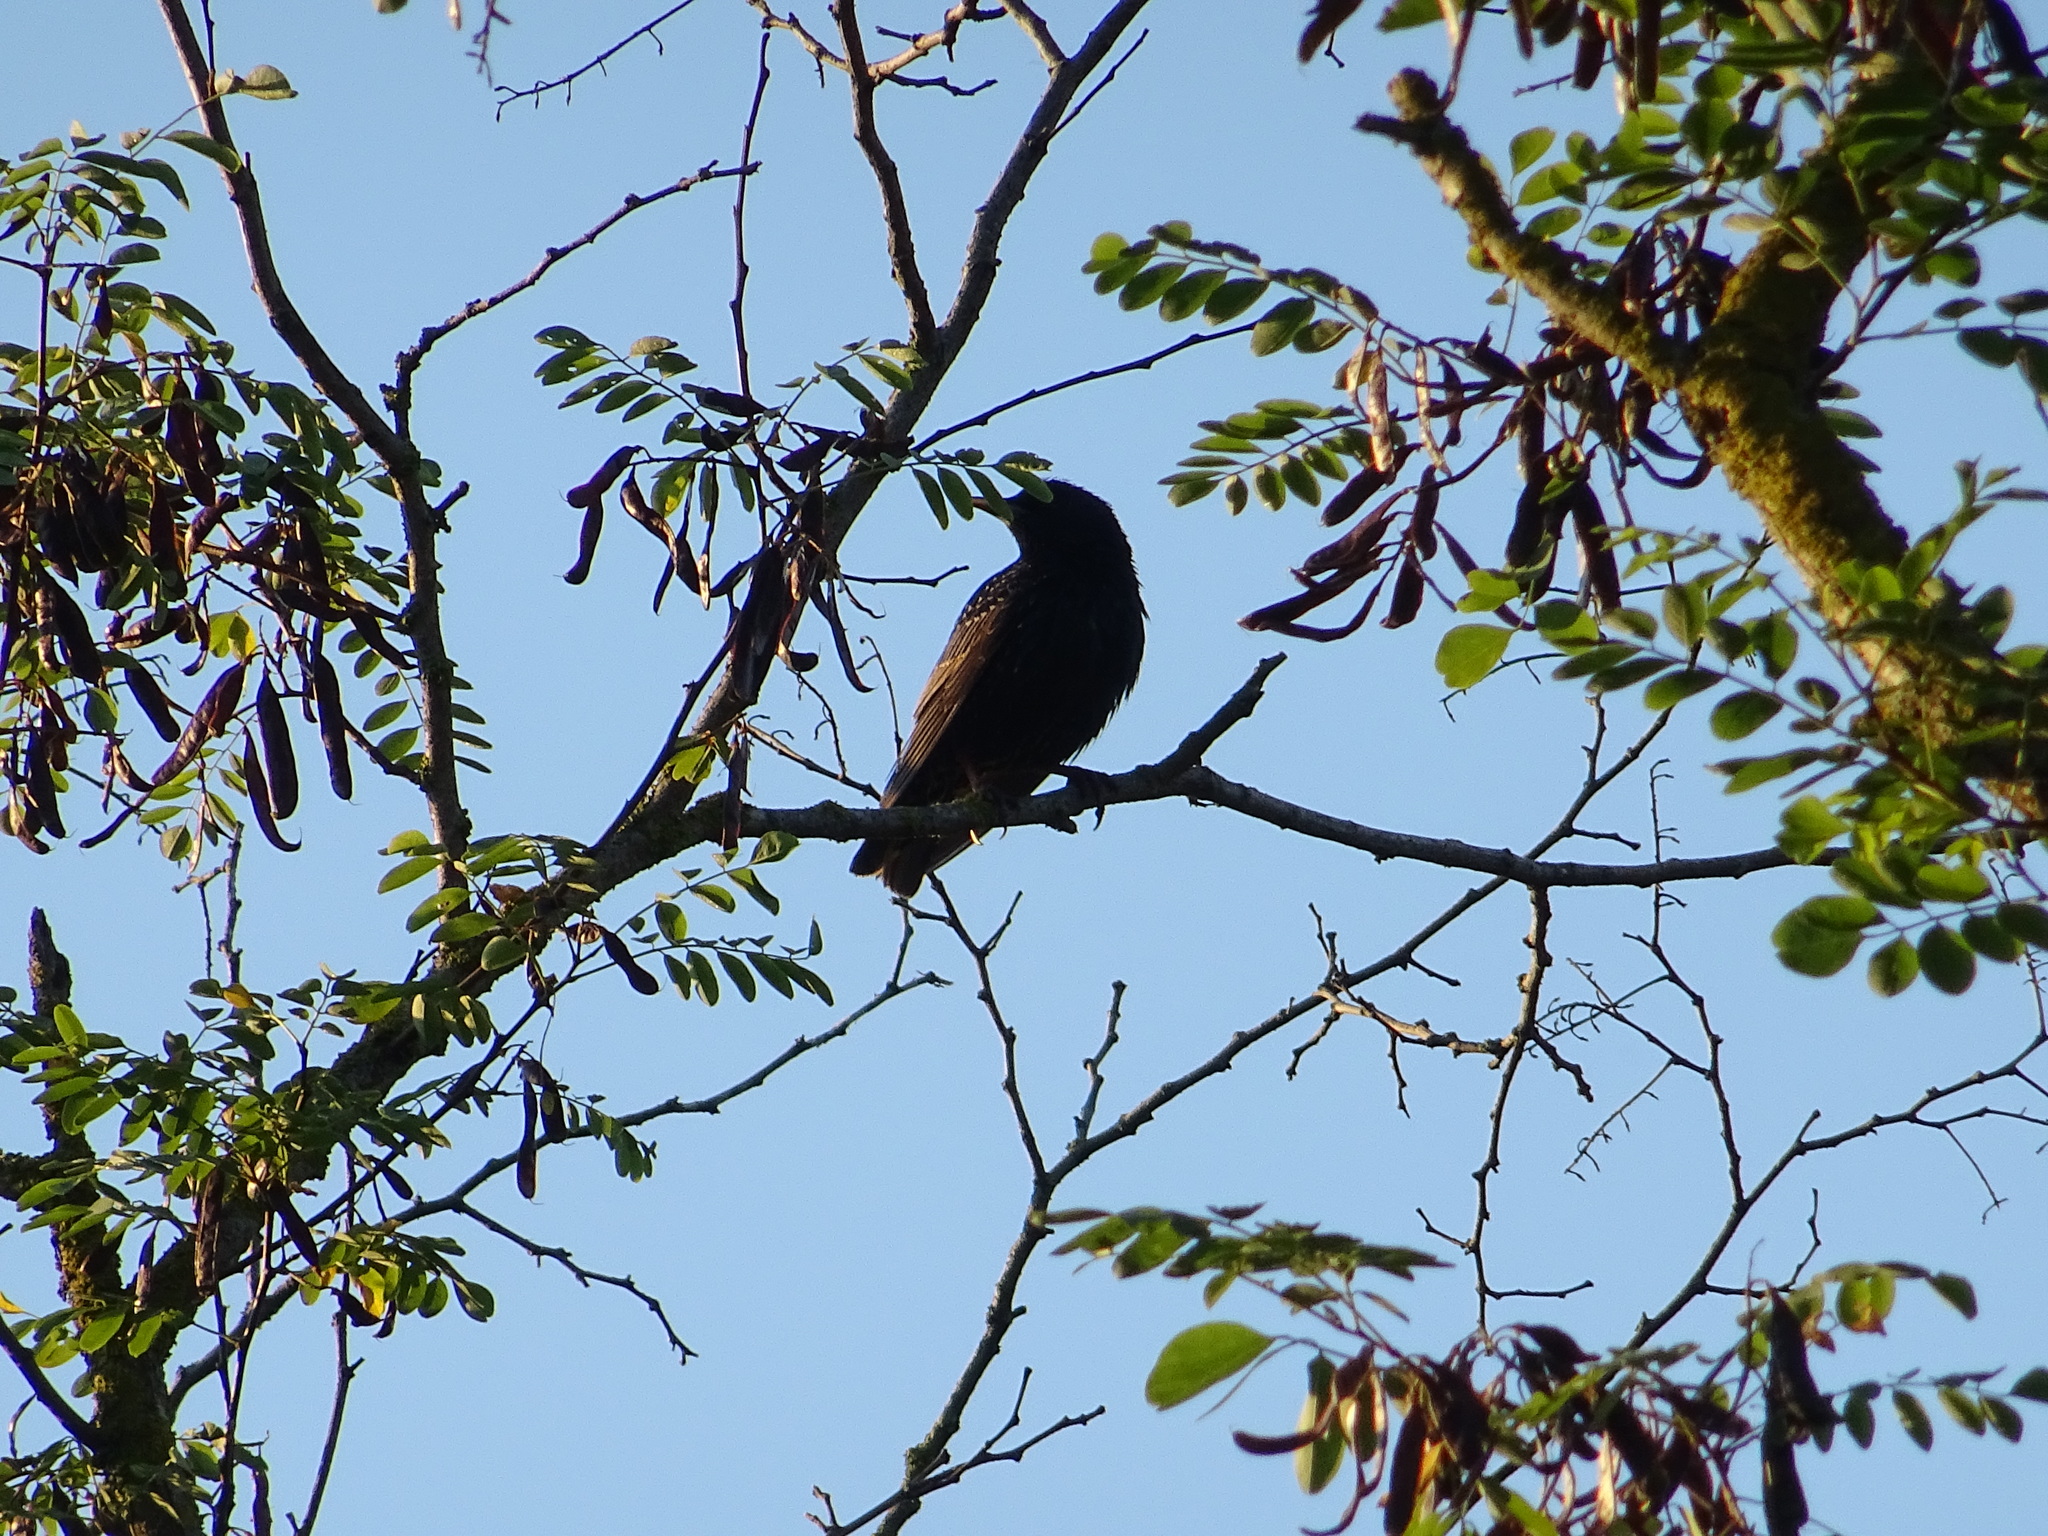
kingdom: Animalia
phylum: Chordata
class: Aves
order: Passeriformes
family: Sturnidae
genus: Sturnus
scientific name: Sturnus vulgaris
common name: Common starling
